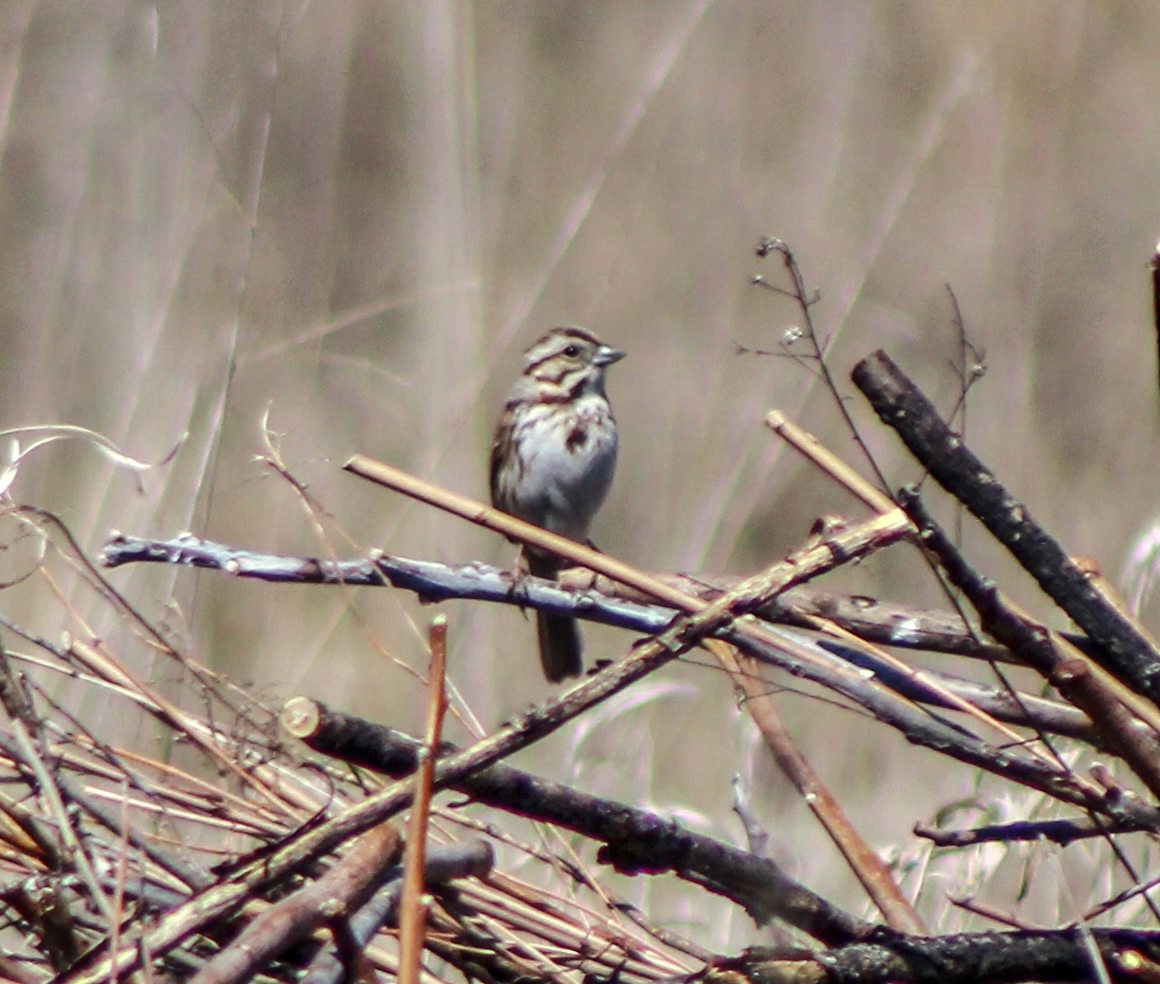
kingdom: Animalia
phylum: Chordata
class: Aves
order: Passeriformes
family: Passerellidae
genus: Melospiza
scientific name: Melospiza melodia
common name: Song sparrow
